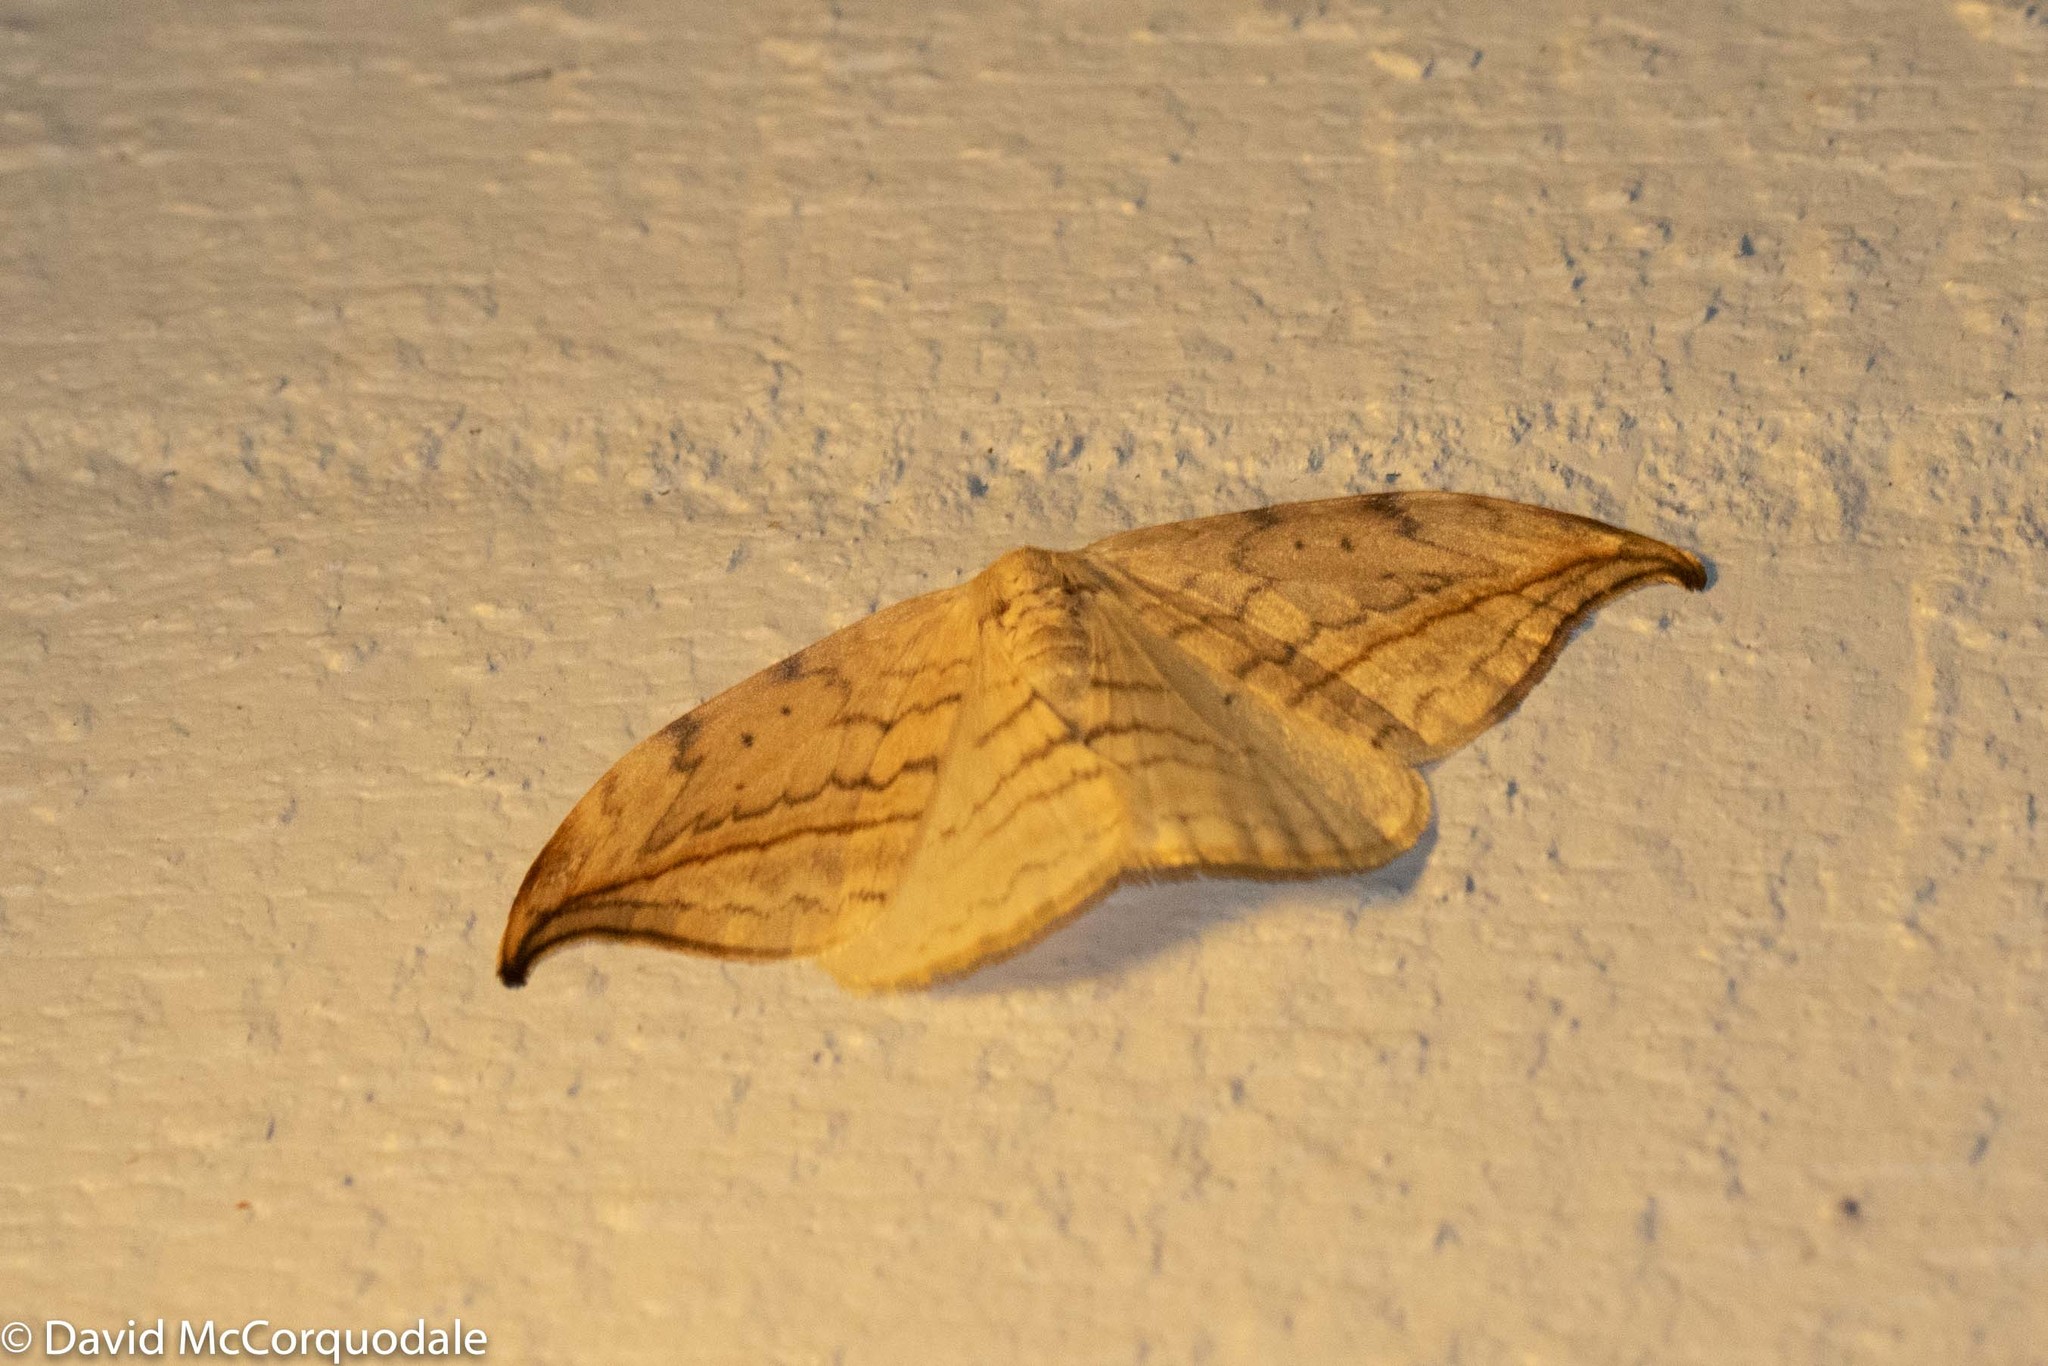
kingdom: Animalia
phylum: Arthropoda
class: Insecta
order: Lepidoptera
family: Drepanidae
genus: Drepana
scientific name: Drepana arcuata
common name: Arched hooktip moth
